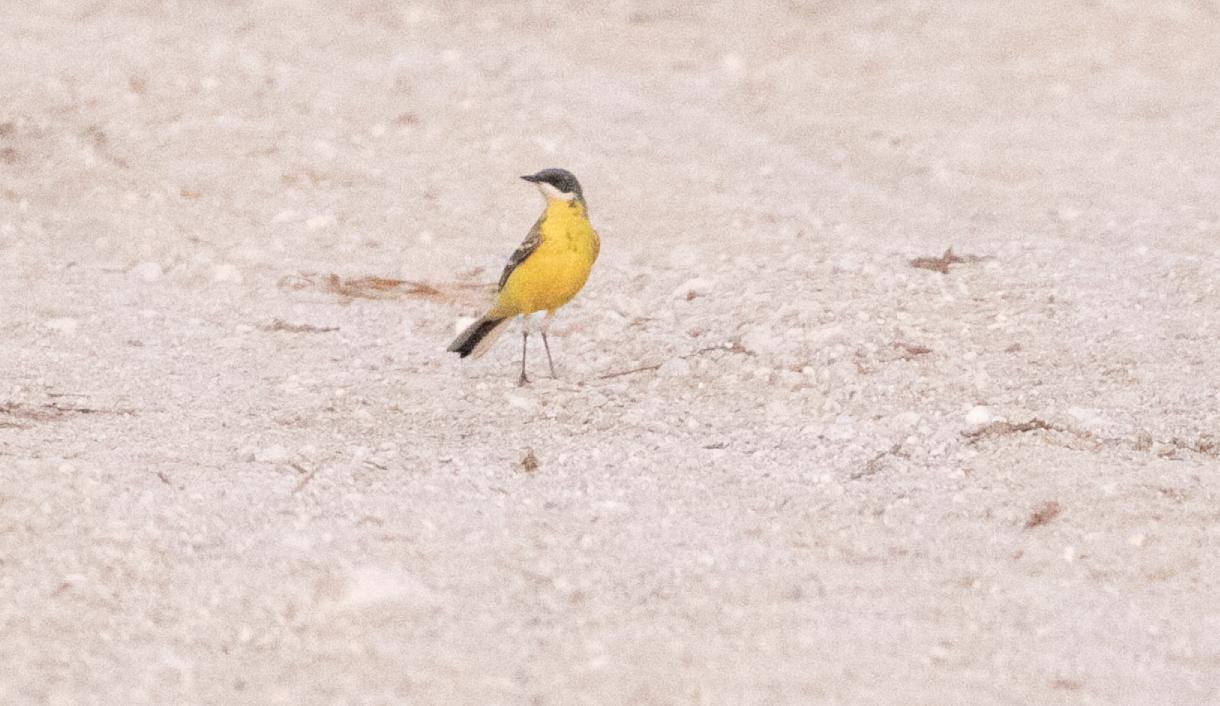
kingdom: Animalia
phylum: Chordata
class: Aves
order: Passeriformes
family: Motacillidae
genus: Motacilla
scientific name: Motacilla flava
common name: Western yellow wagtail
